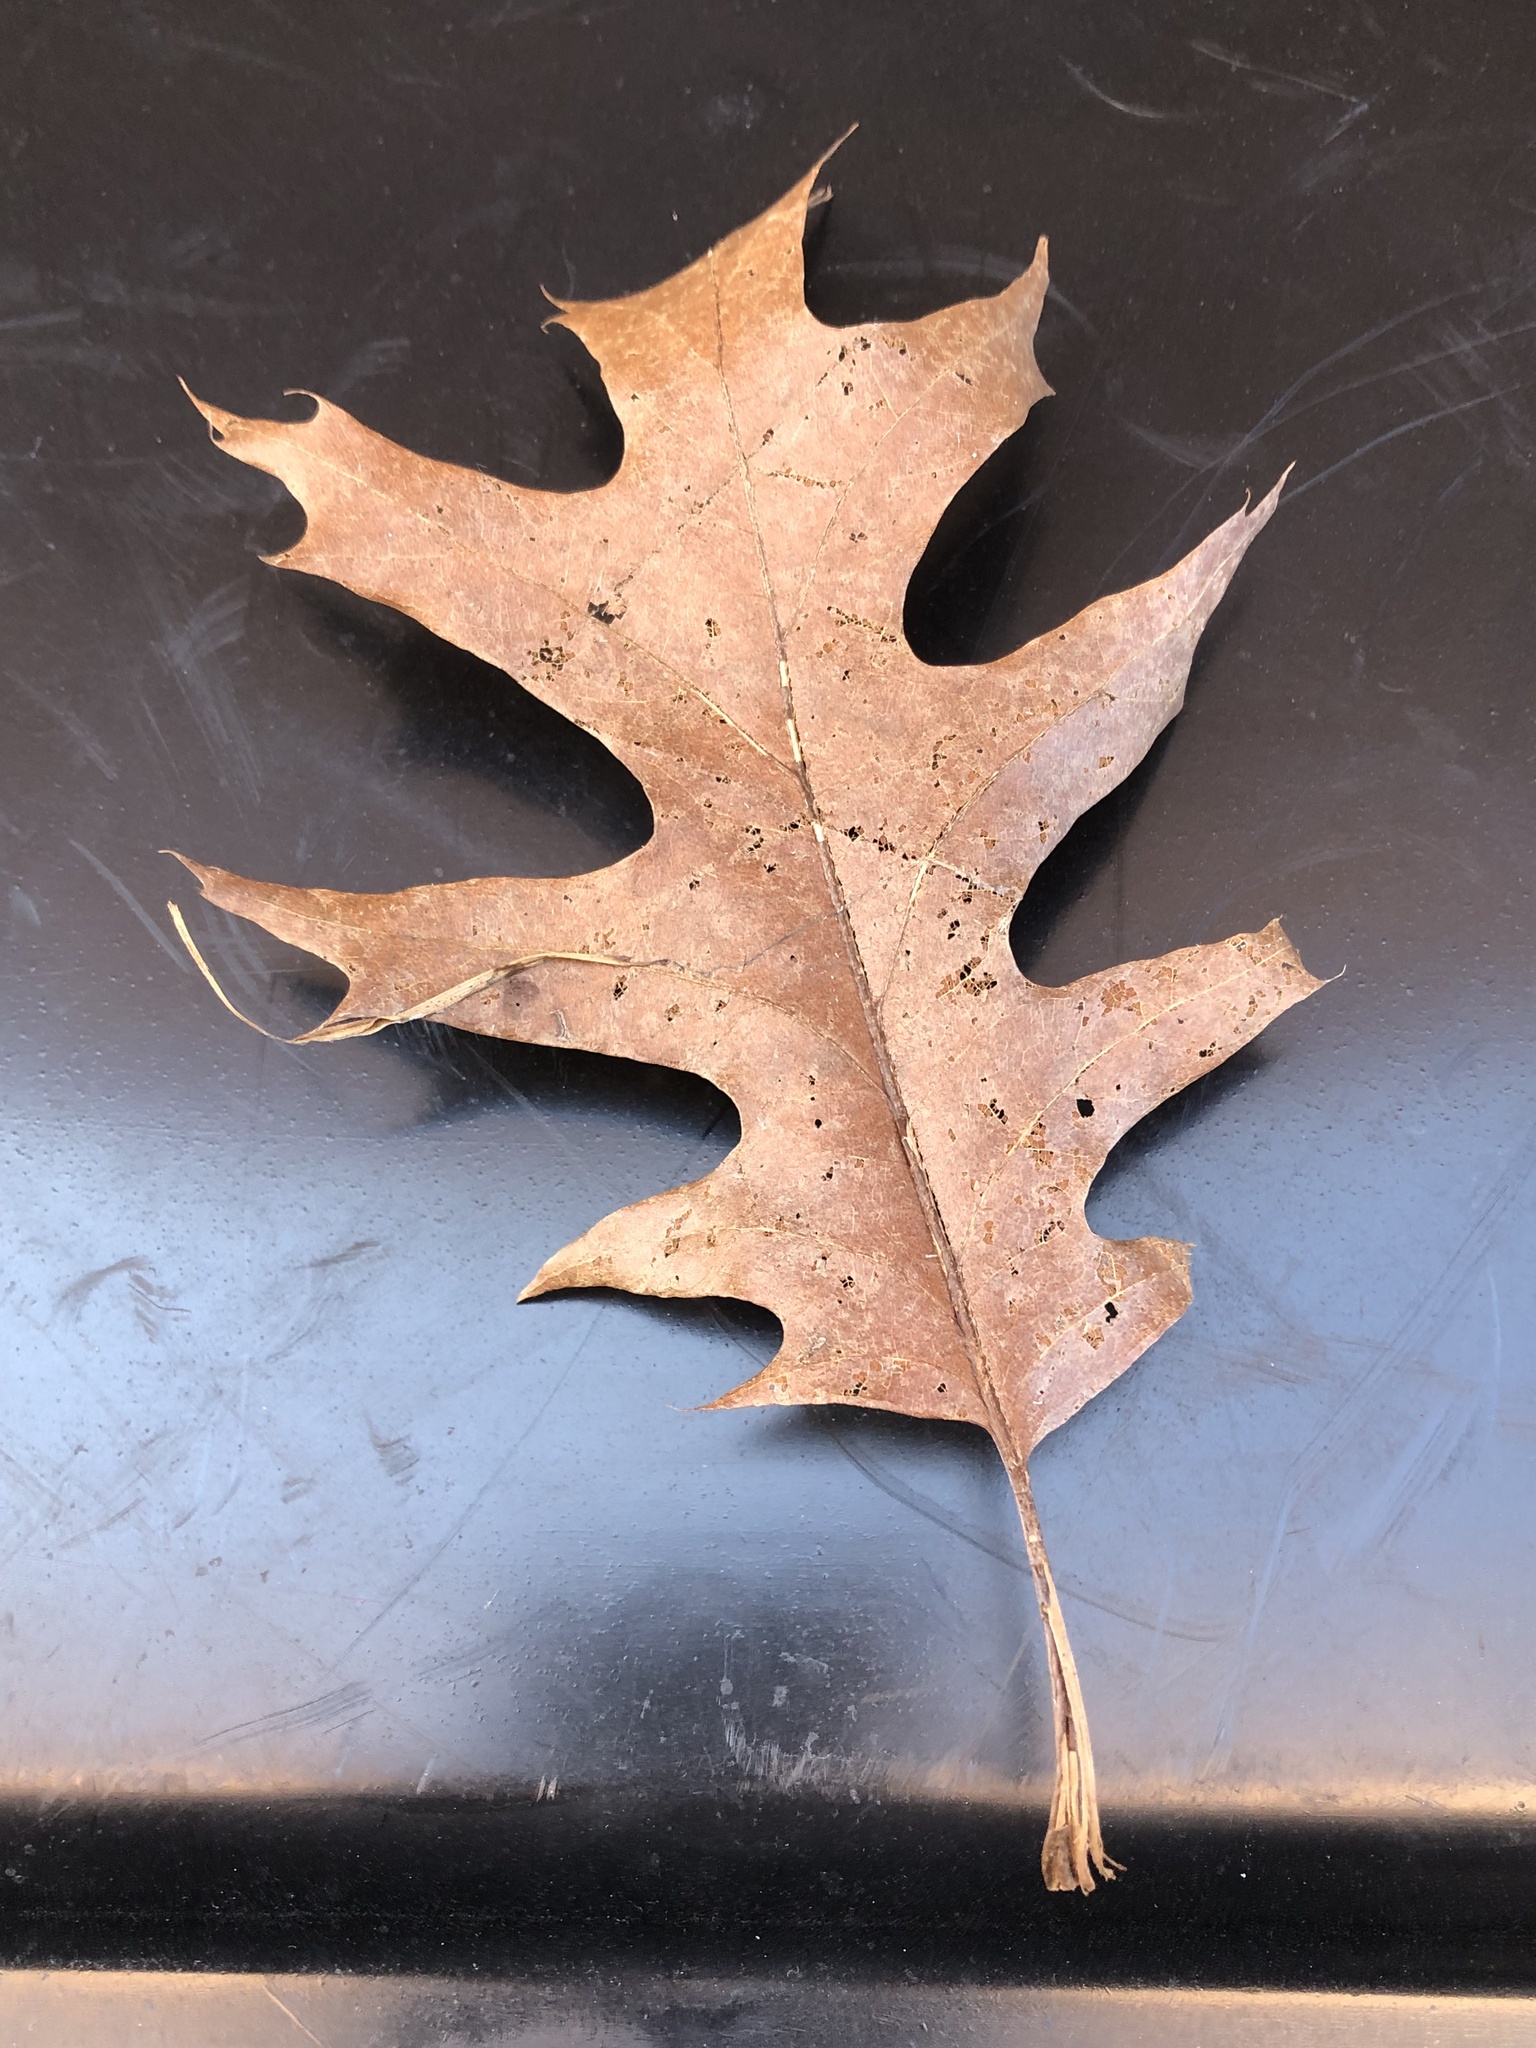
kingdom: Plantae
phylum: Tracheophyta
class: Magnoliopsida
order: Fagales
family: Fagaceae
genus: Quercus
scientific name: Quercus rubra
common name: Red oak
